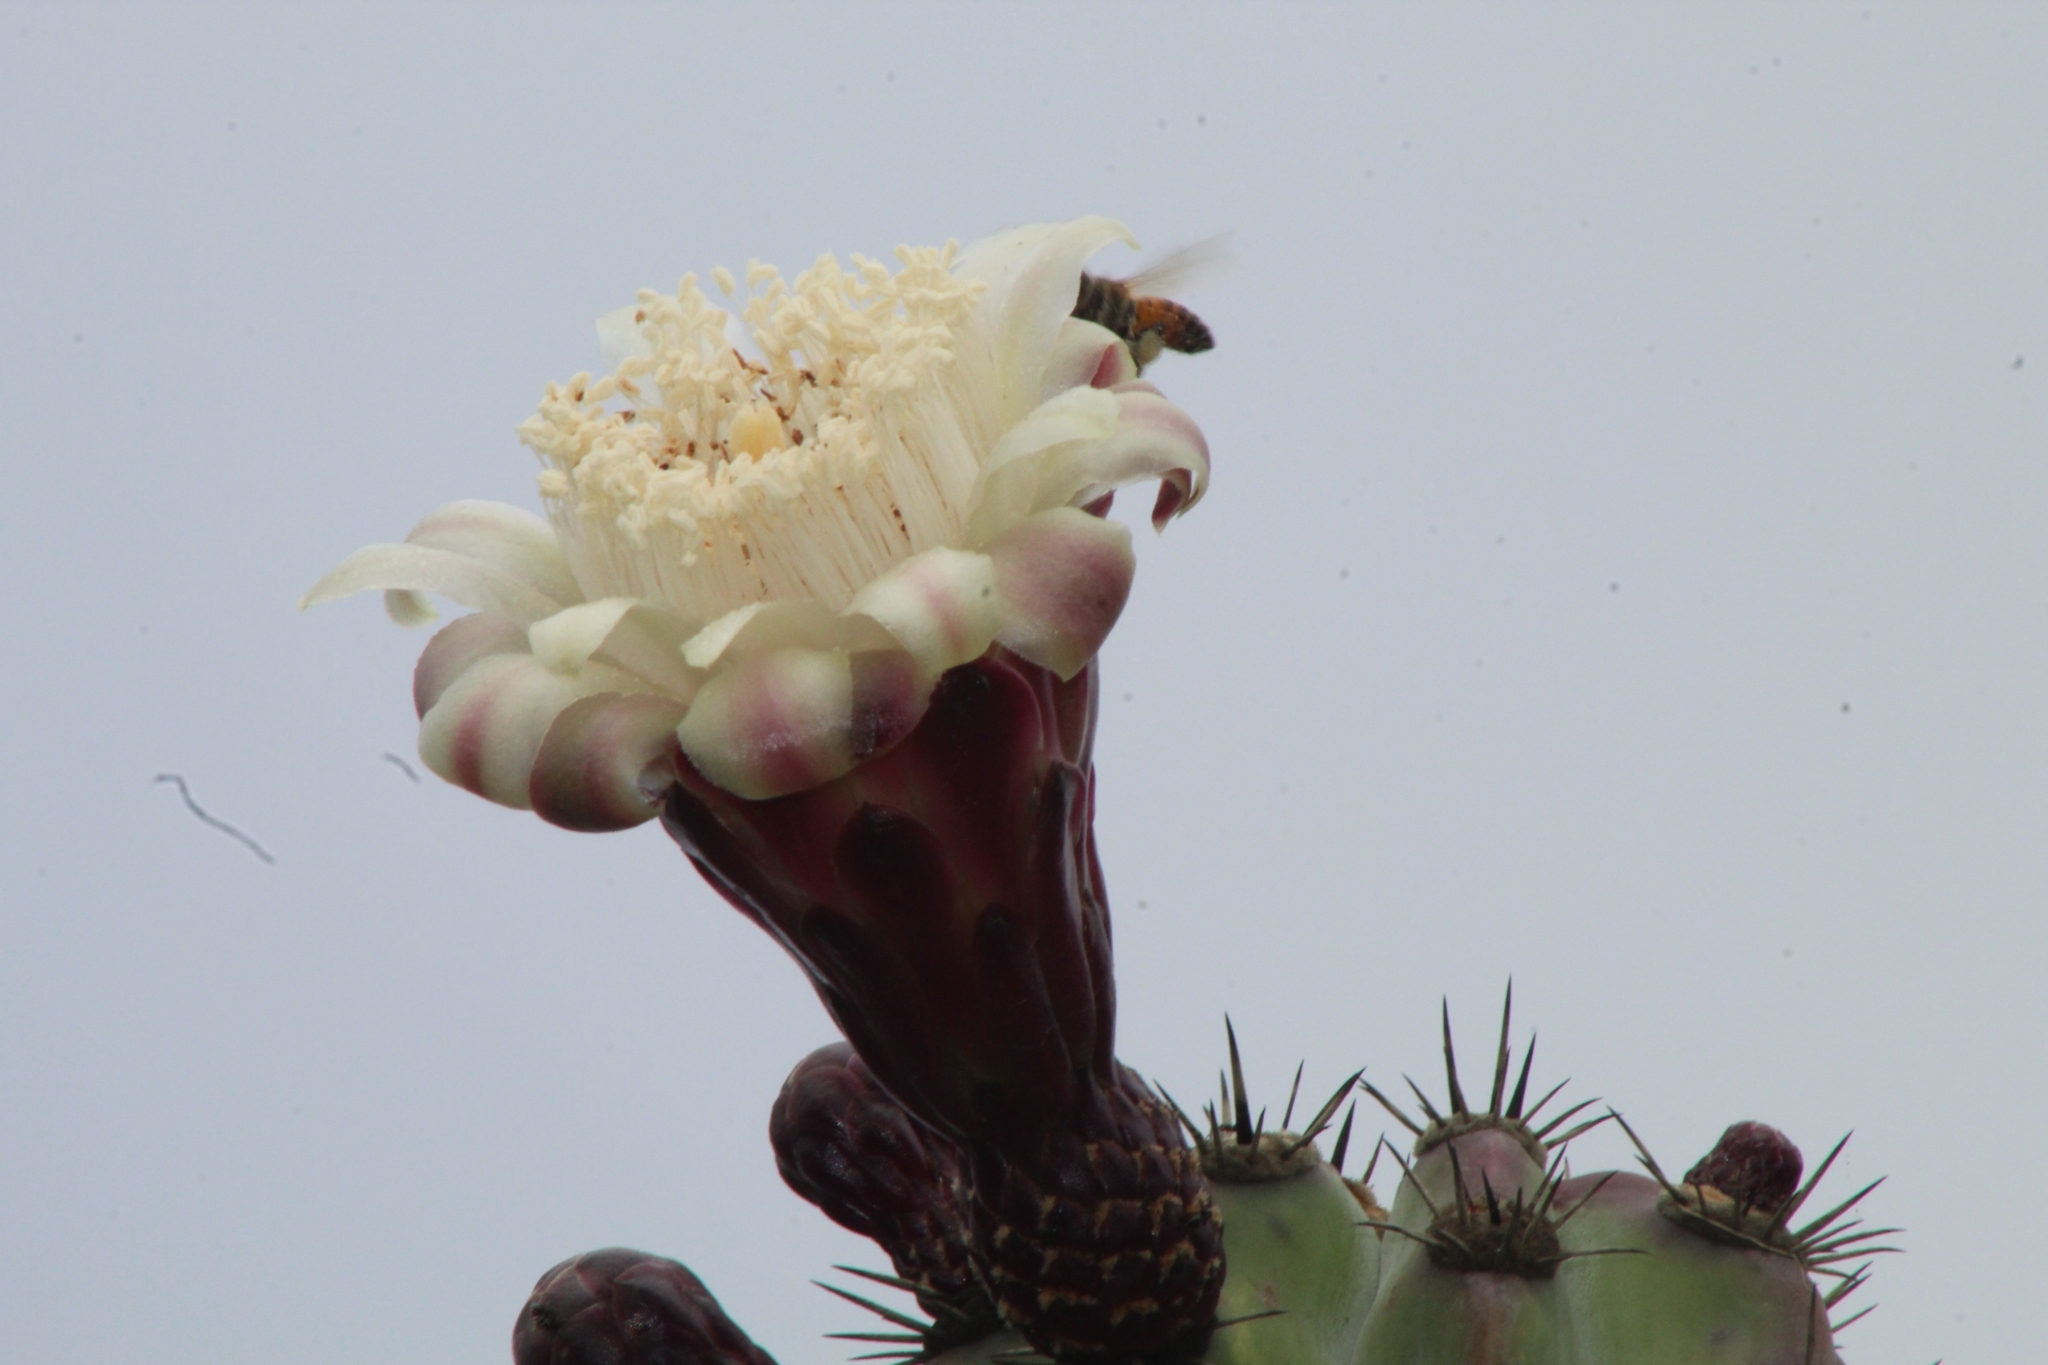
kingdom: Animalia
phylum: Arthropoda
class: Insecta
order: Hymenoptera
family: Apidae
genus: Apis
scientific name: Apis mellifera
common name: Honey bee
